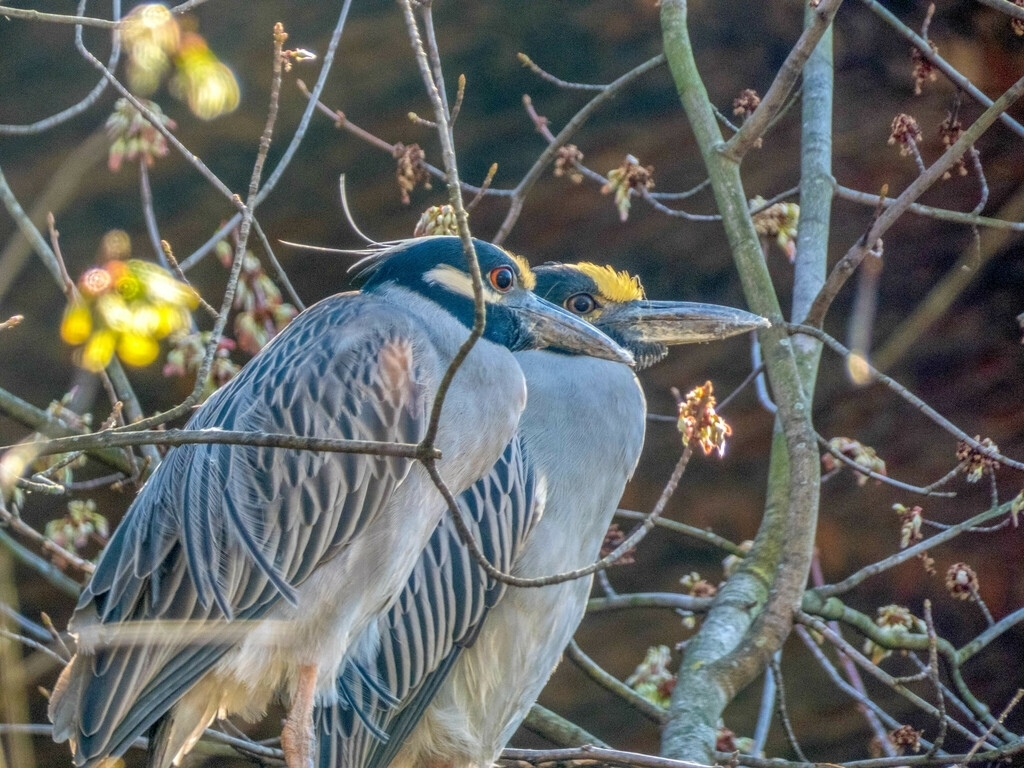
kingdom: Animalia
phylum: Chordata
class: Aves
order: Pelecaniformes
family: Ardeidae
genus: Nyctanassa
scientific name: Nyctanassa violacea
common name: Yellow-crowned night heron
